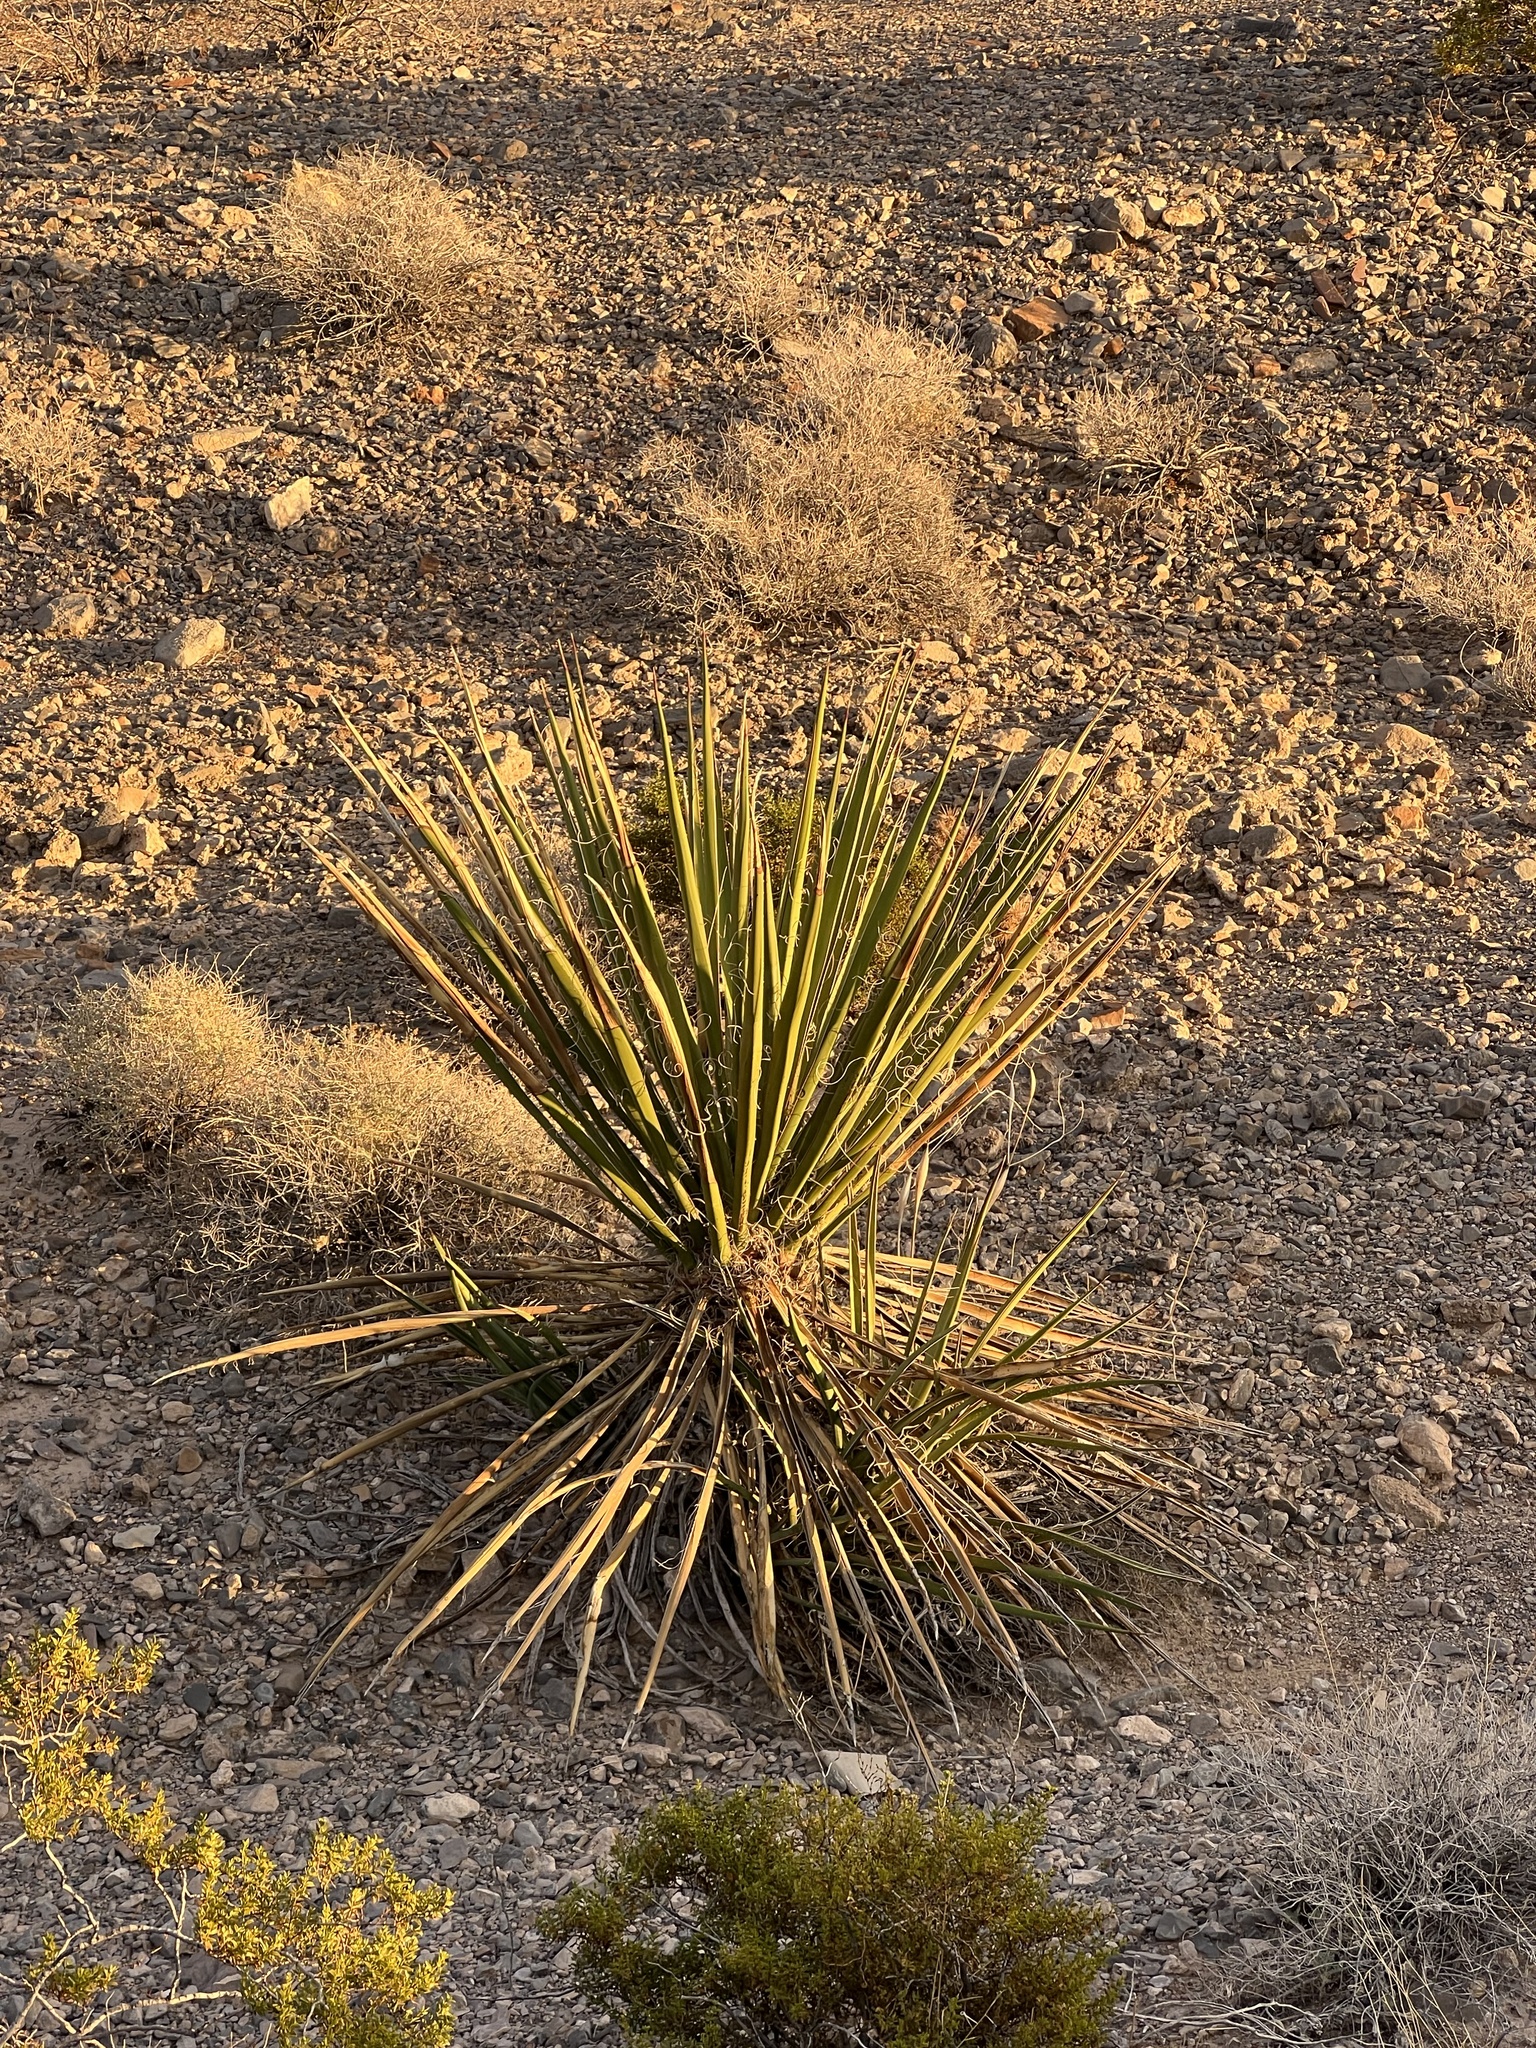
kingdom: Plantae
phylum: Tracheophyta
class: Liliopsida
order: Asparagales
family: Asparagaceae
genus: Yucca
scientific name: Yucca schidigera
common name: Mojave yucca
